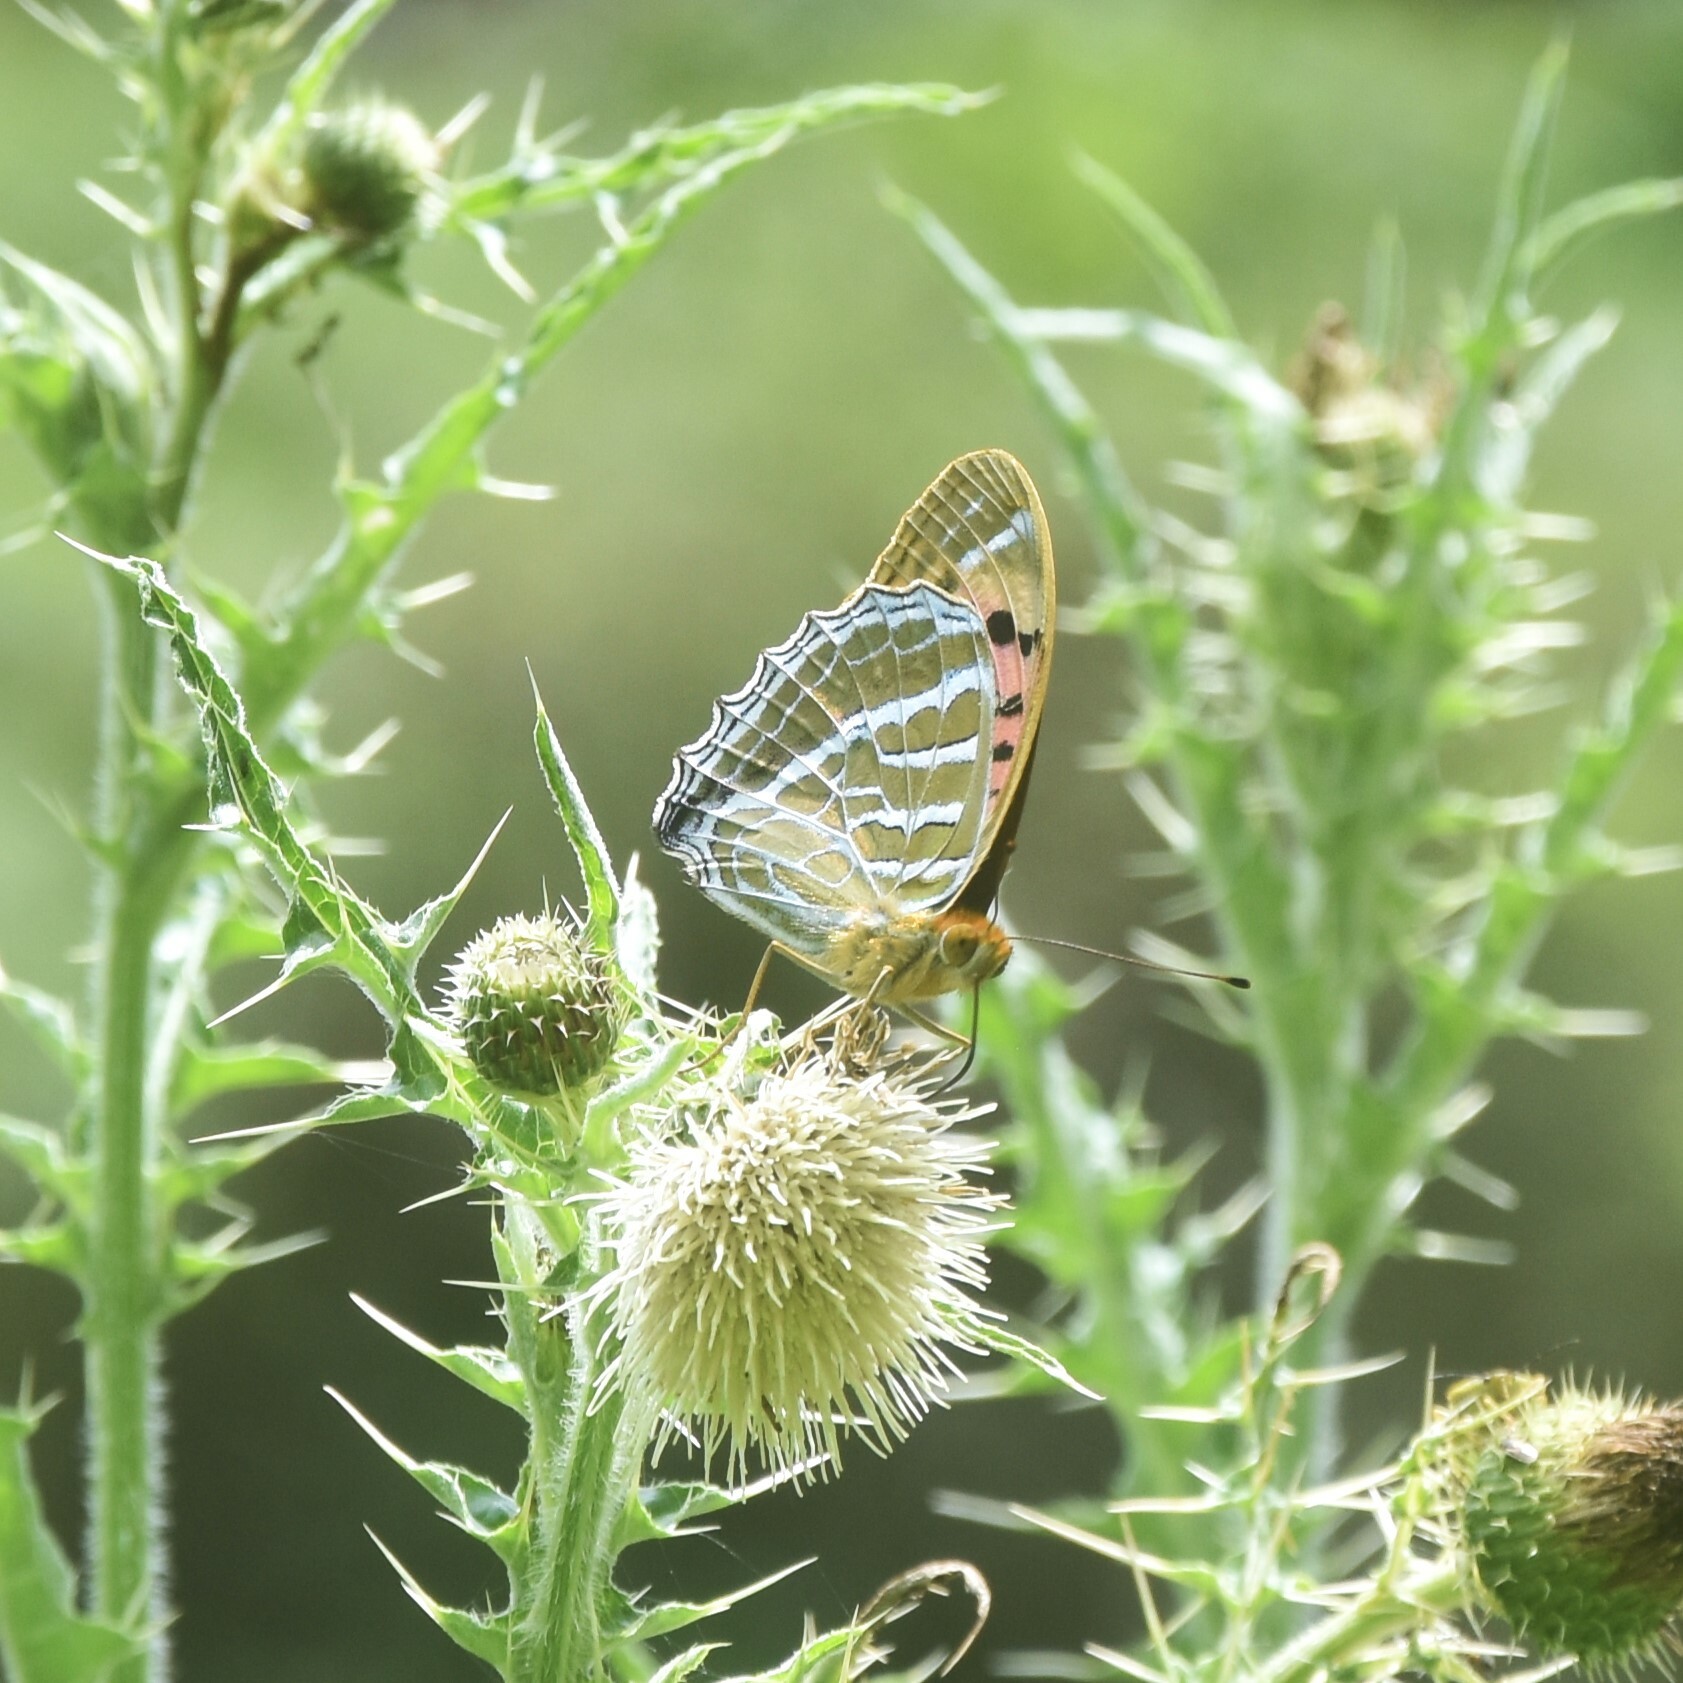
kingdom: Animalia
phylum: Arthropoda
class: Insecta
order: Lepidoptera
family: Nymphalidae
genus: Childrena
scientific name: Childrena childreni
